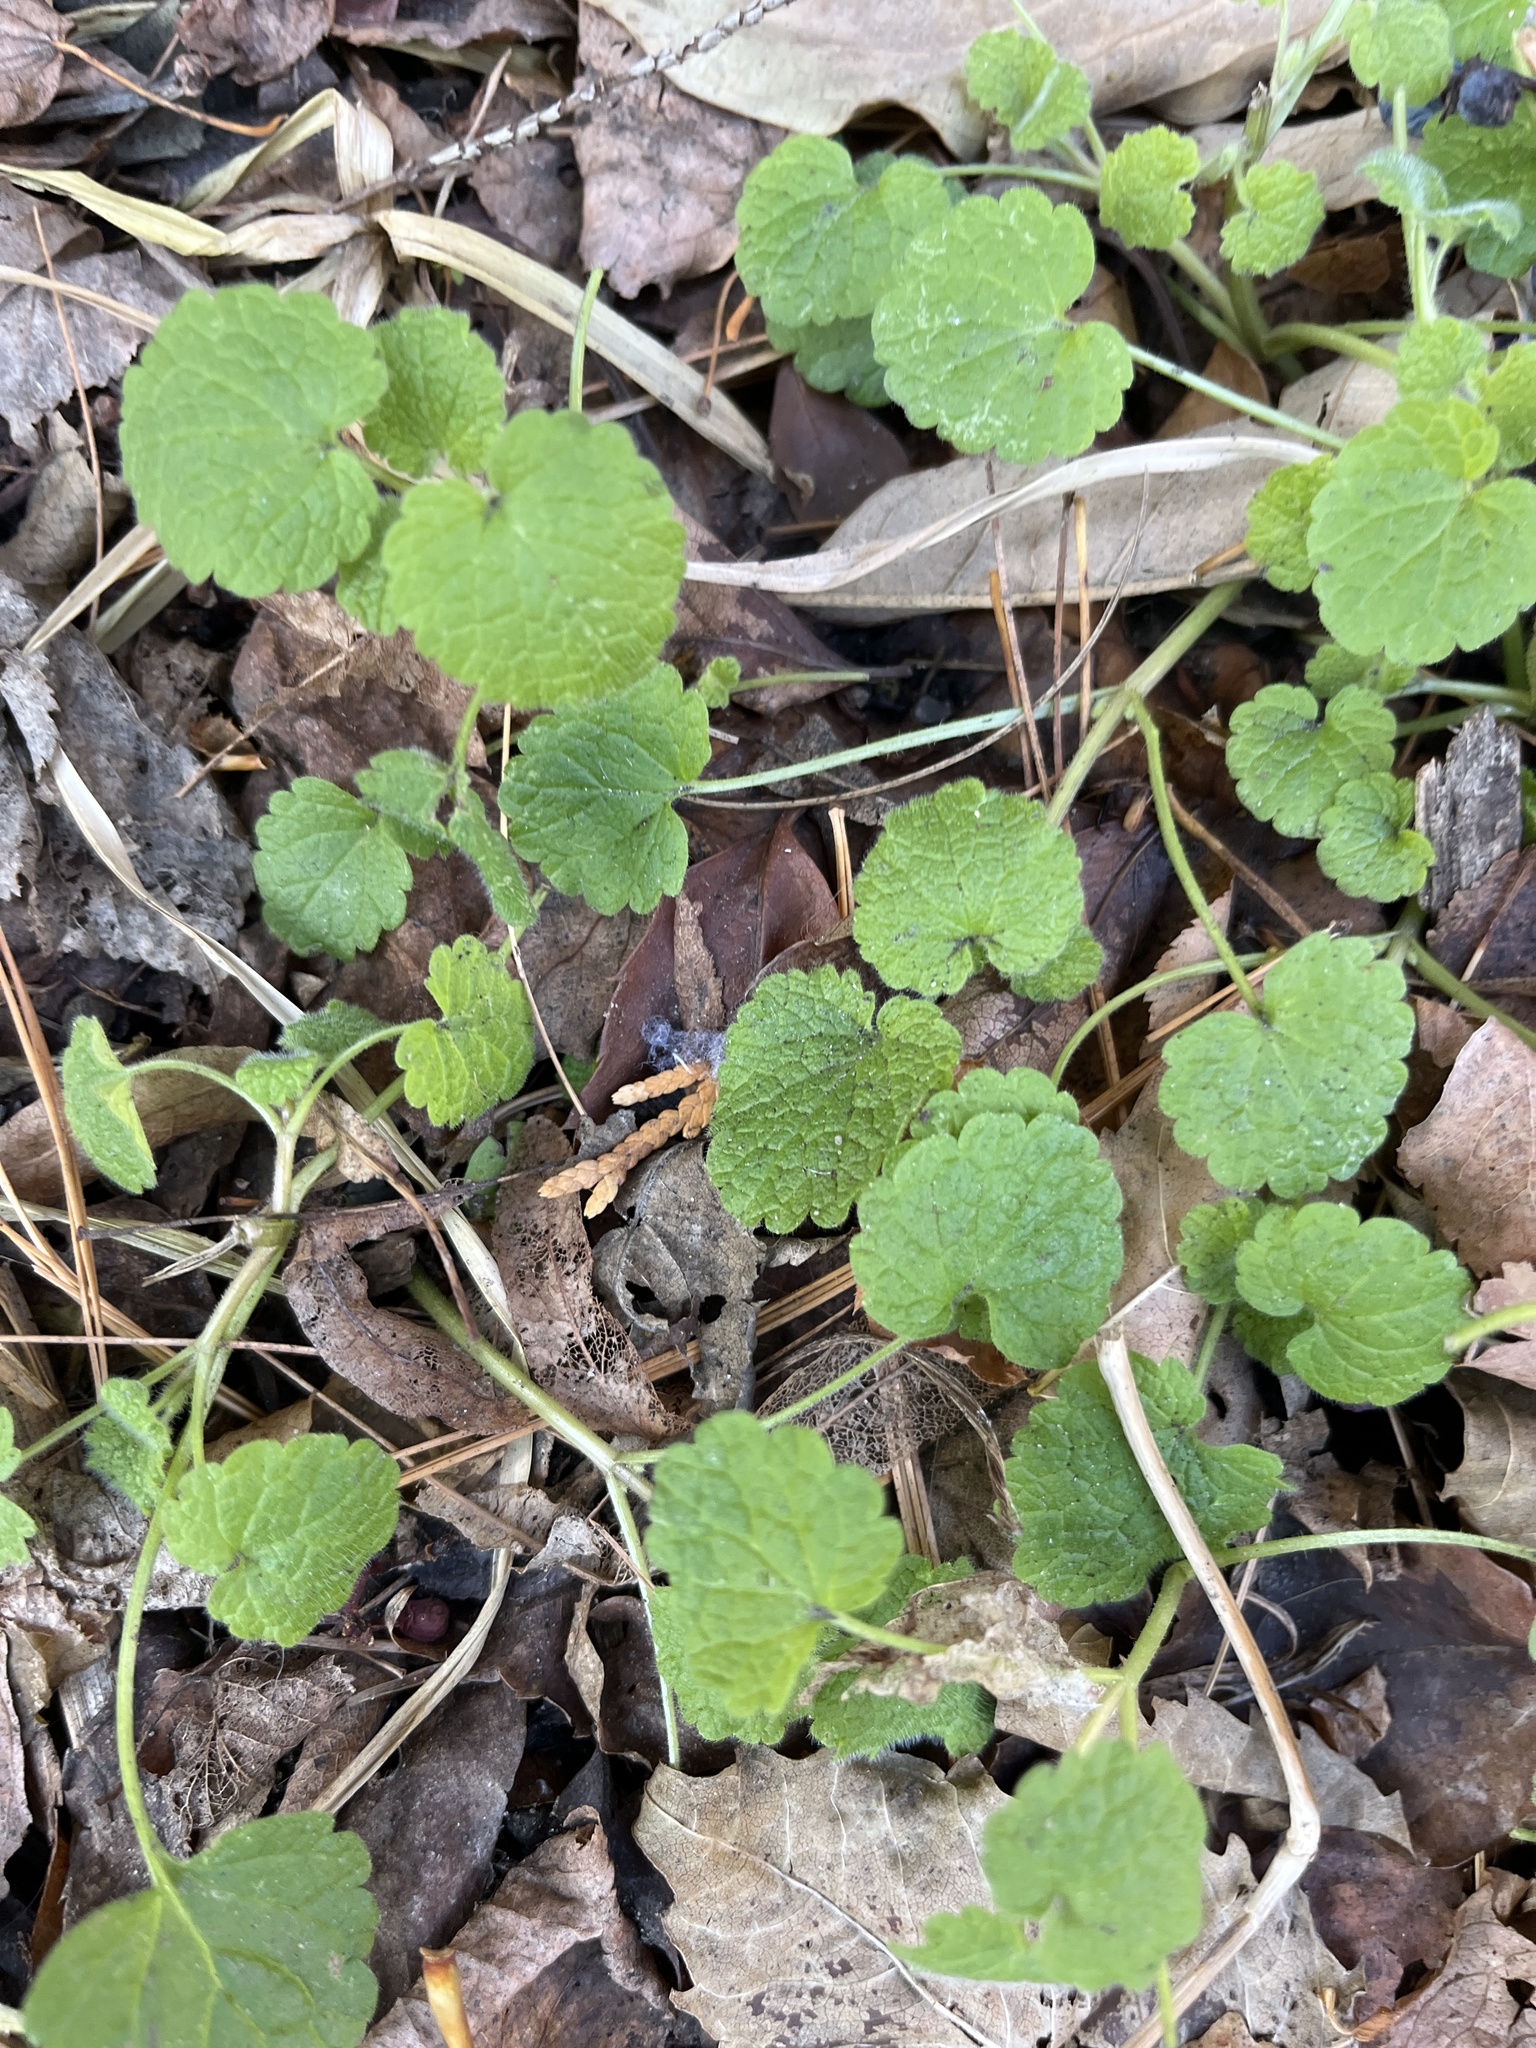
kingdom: Plantae
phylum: Tracheophyta
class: Magnoliopsida
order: Lamiales
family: Lamiaceae
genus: Glechoma
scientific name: Glechoma hederacea
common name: Ground ivy
